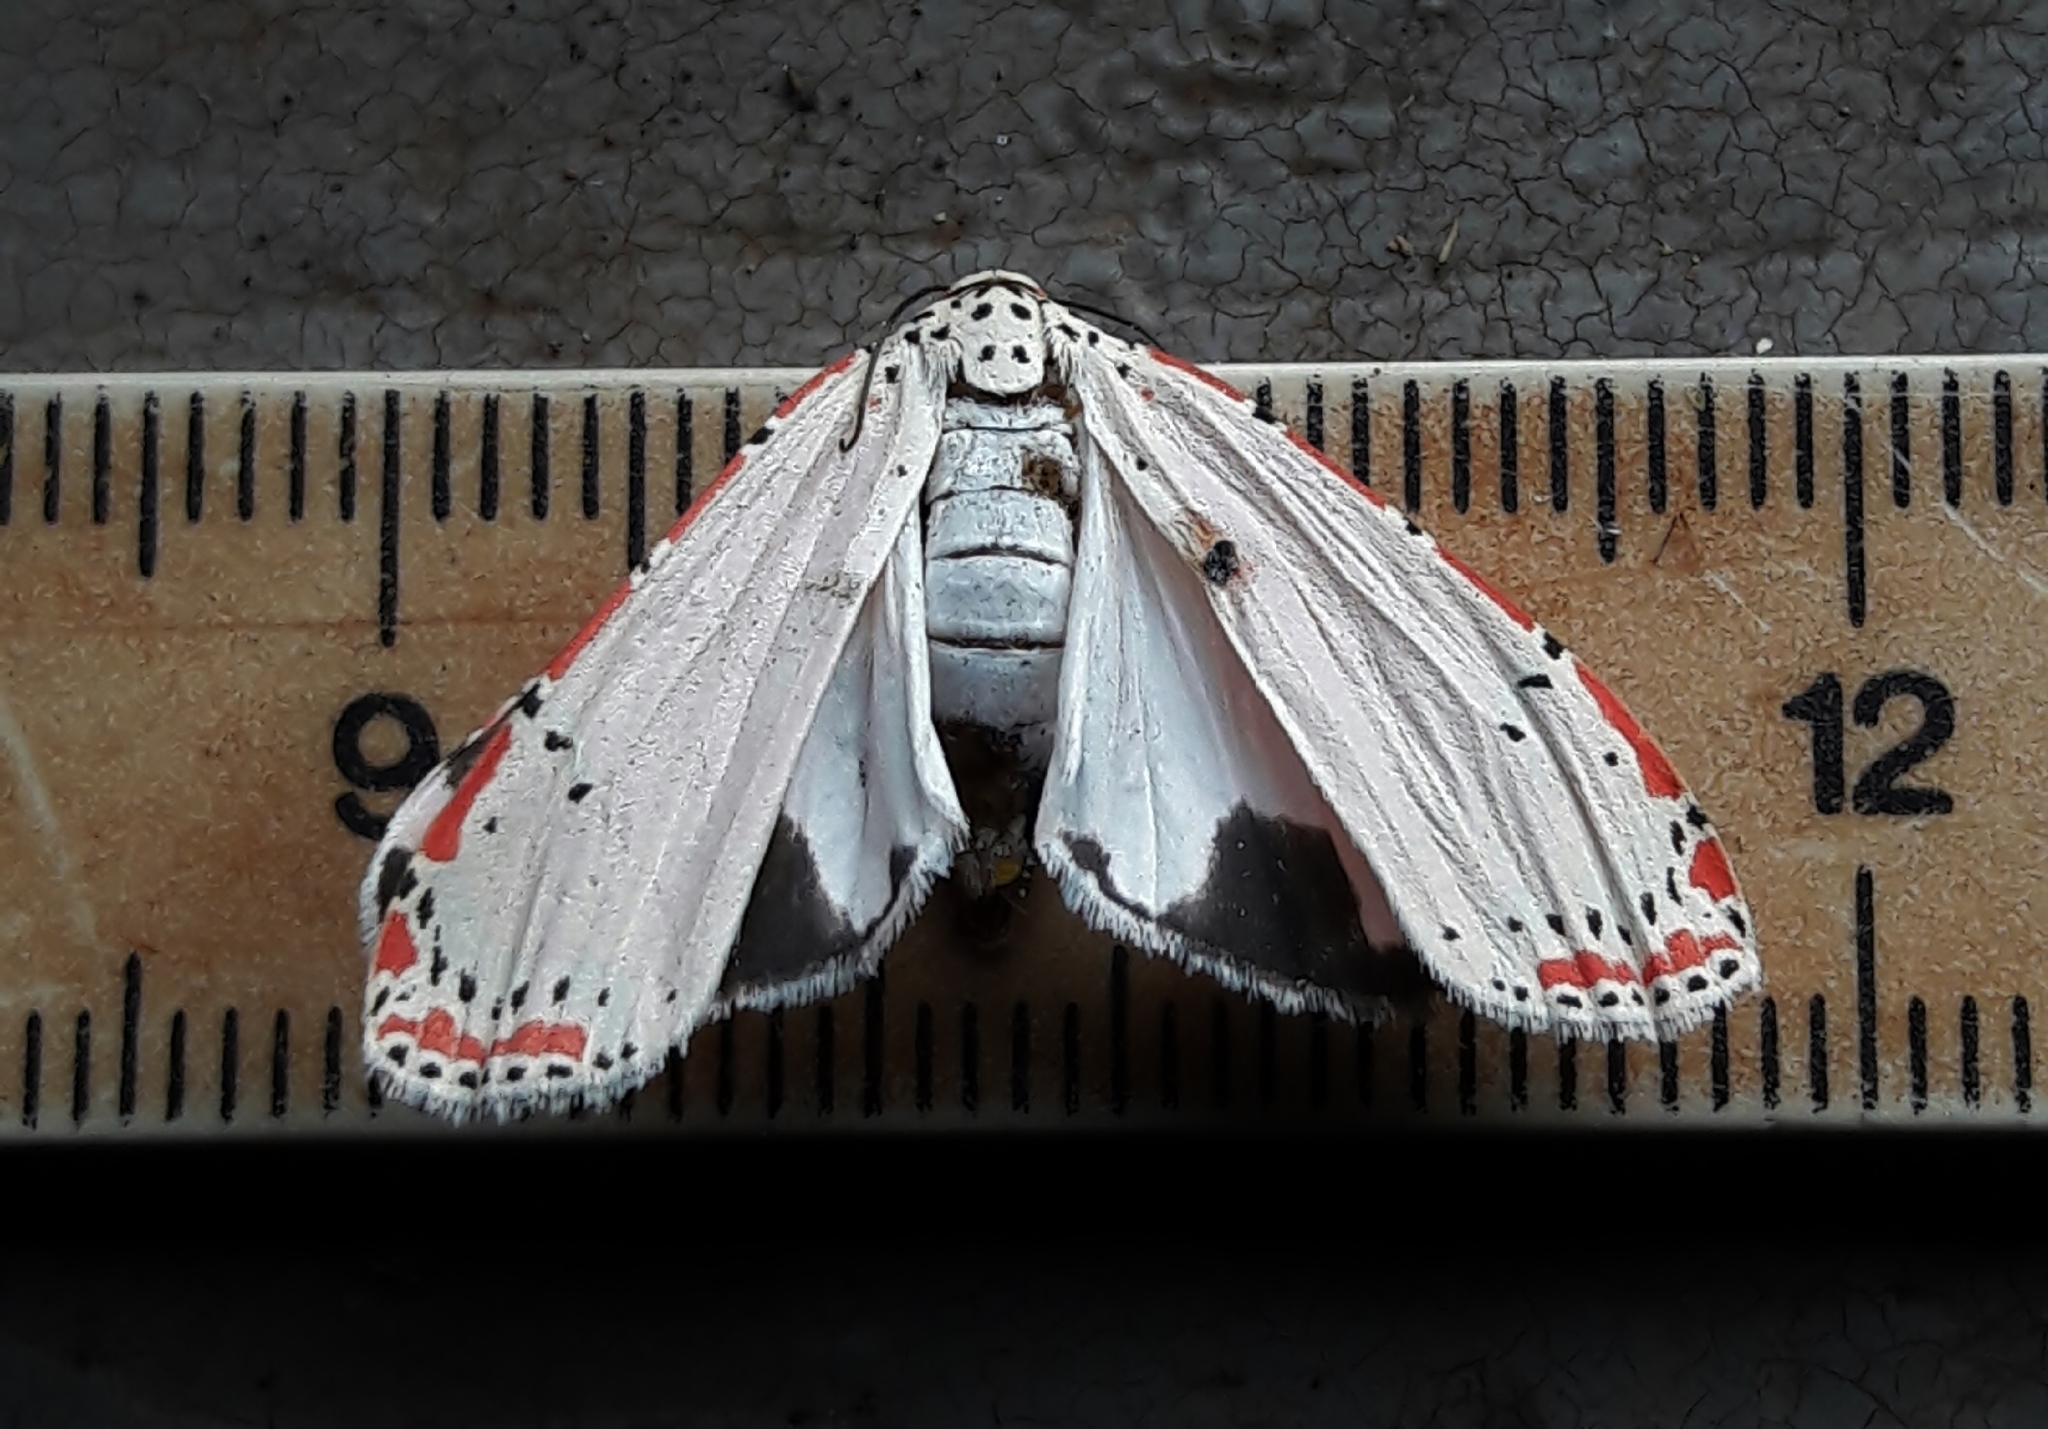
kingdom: Animalia
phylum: Arthropoda
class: Insecta
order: Lepidoptera
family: Erebidae
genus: Utetheisa
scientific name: Utetheisa ornatrix
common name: Beautiful utetheisa
